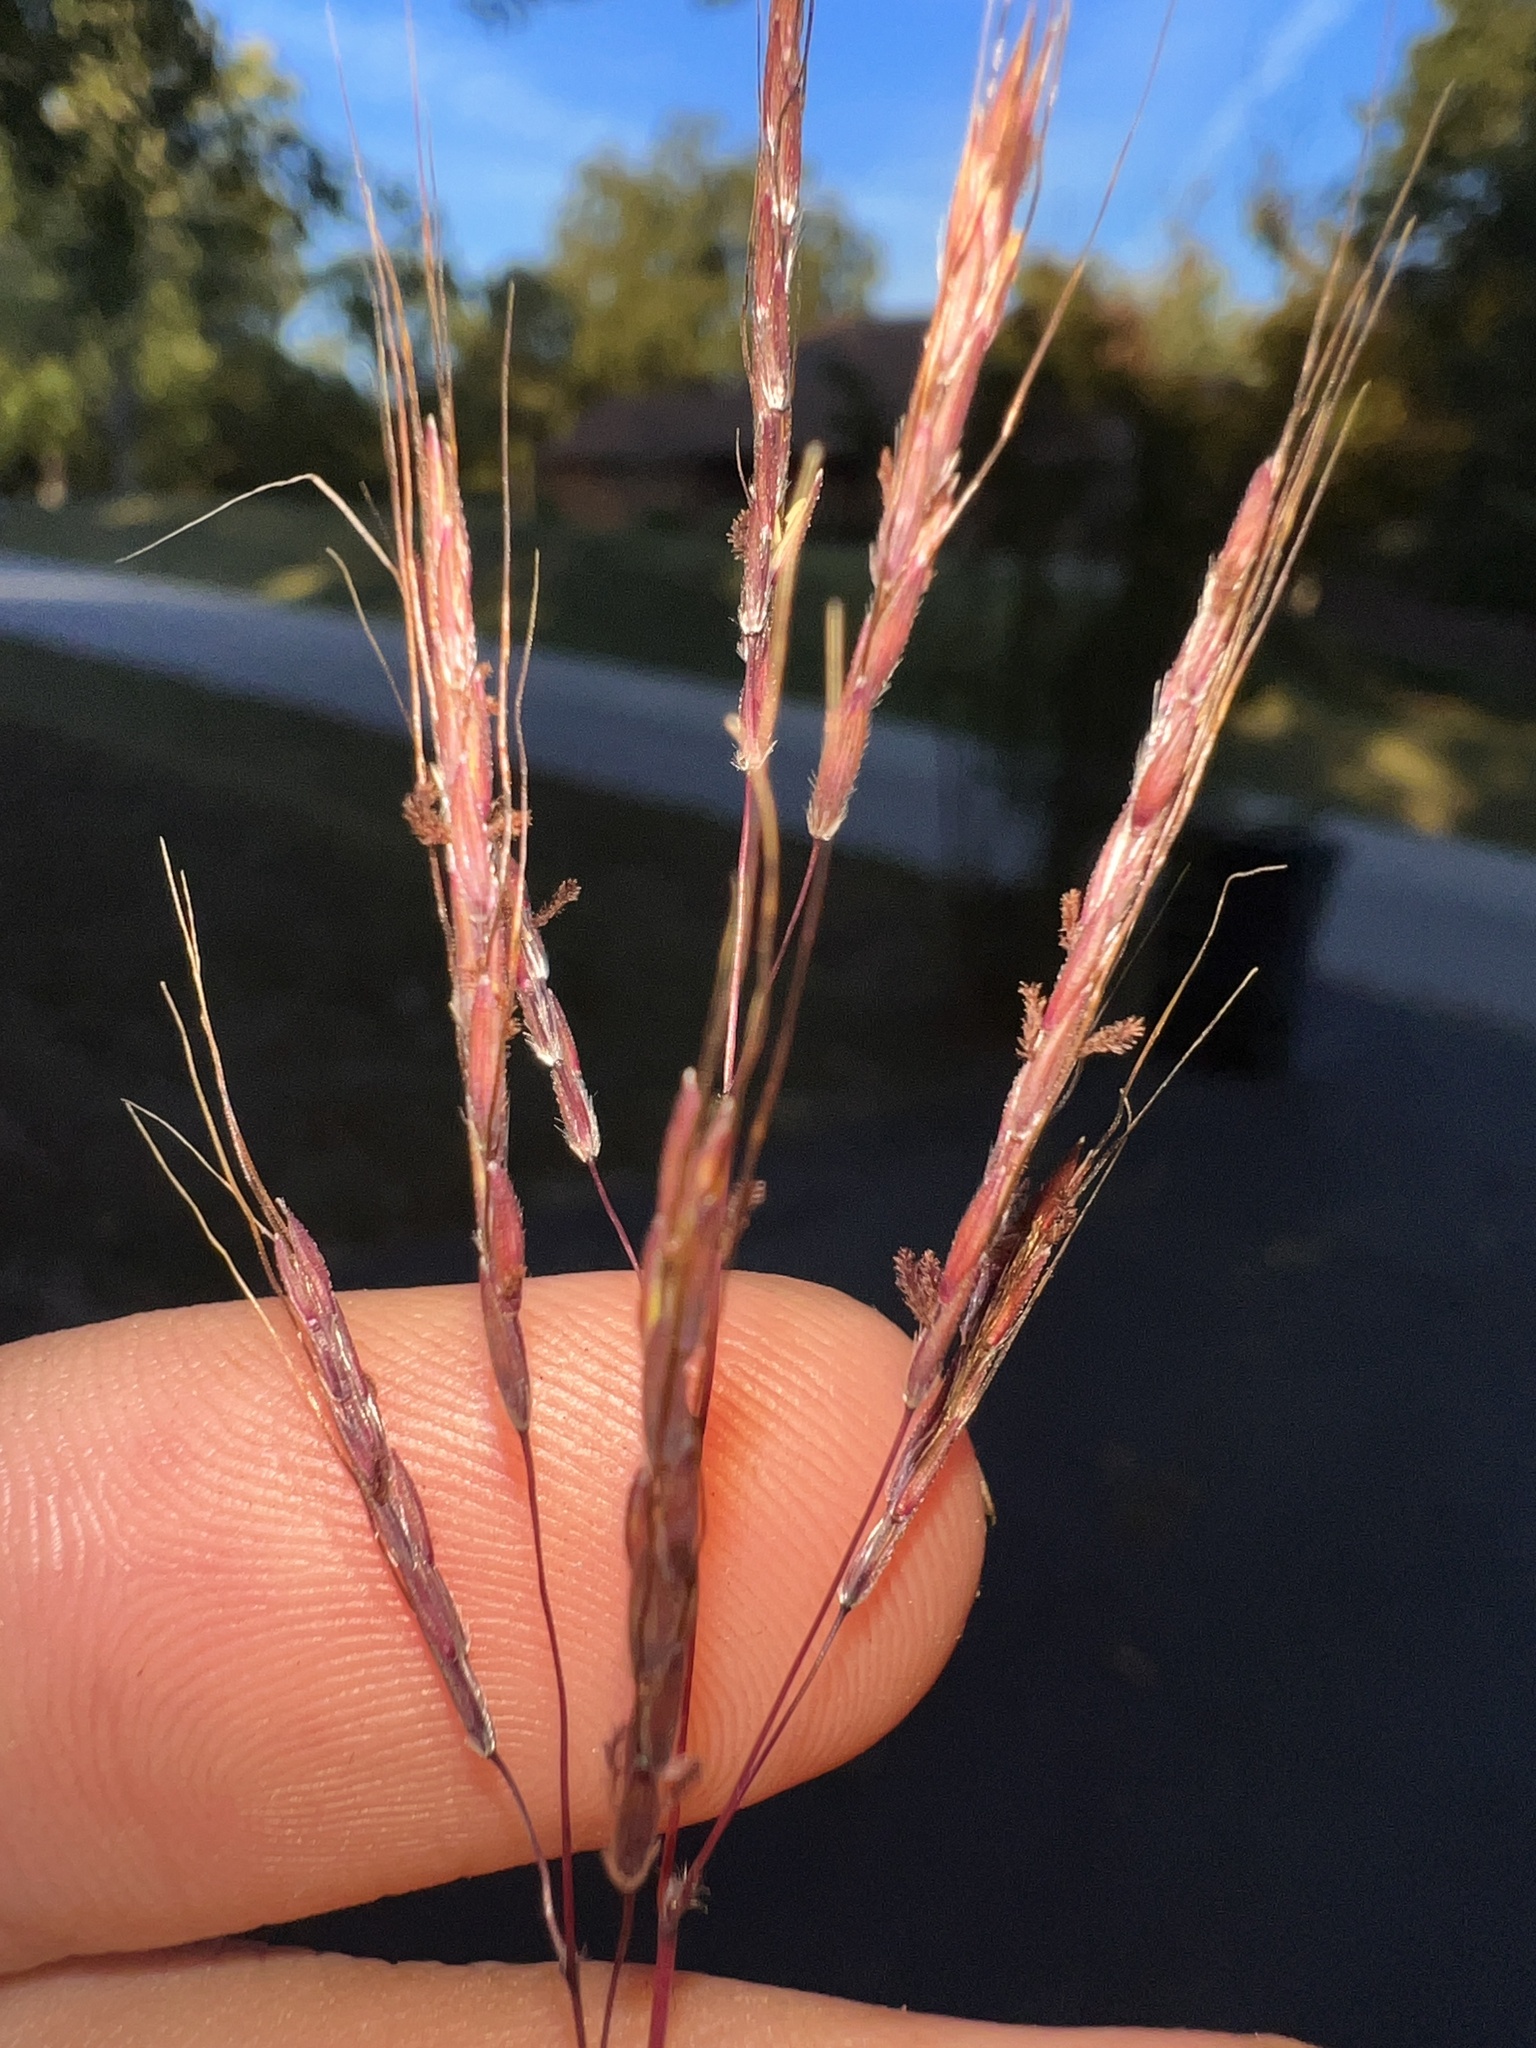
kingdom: Plantae
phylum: Tracheophyta
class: Liliopsida
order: Poales
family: Poaceae
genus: Bothriochloa
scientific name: Bothriochloa ischaemum
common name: Yellow bluestem
